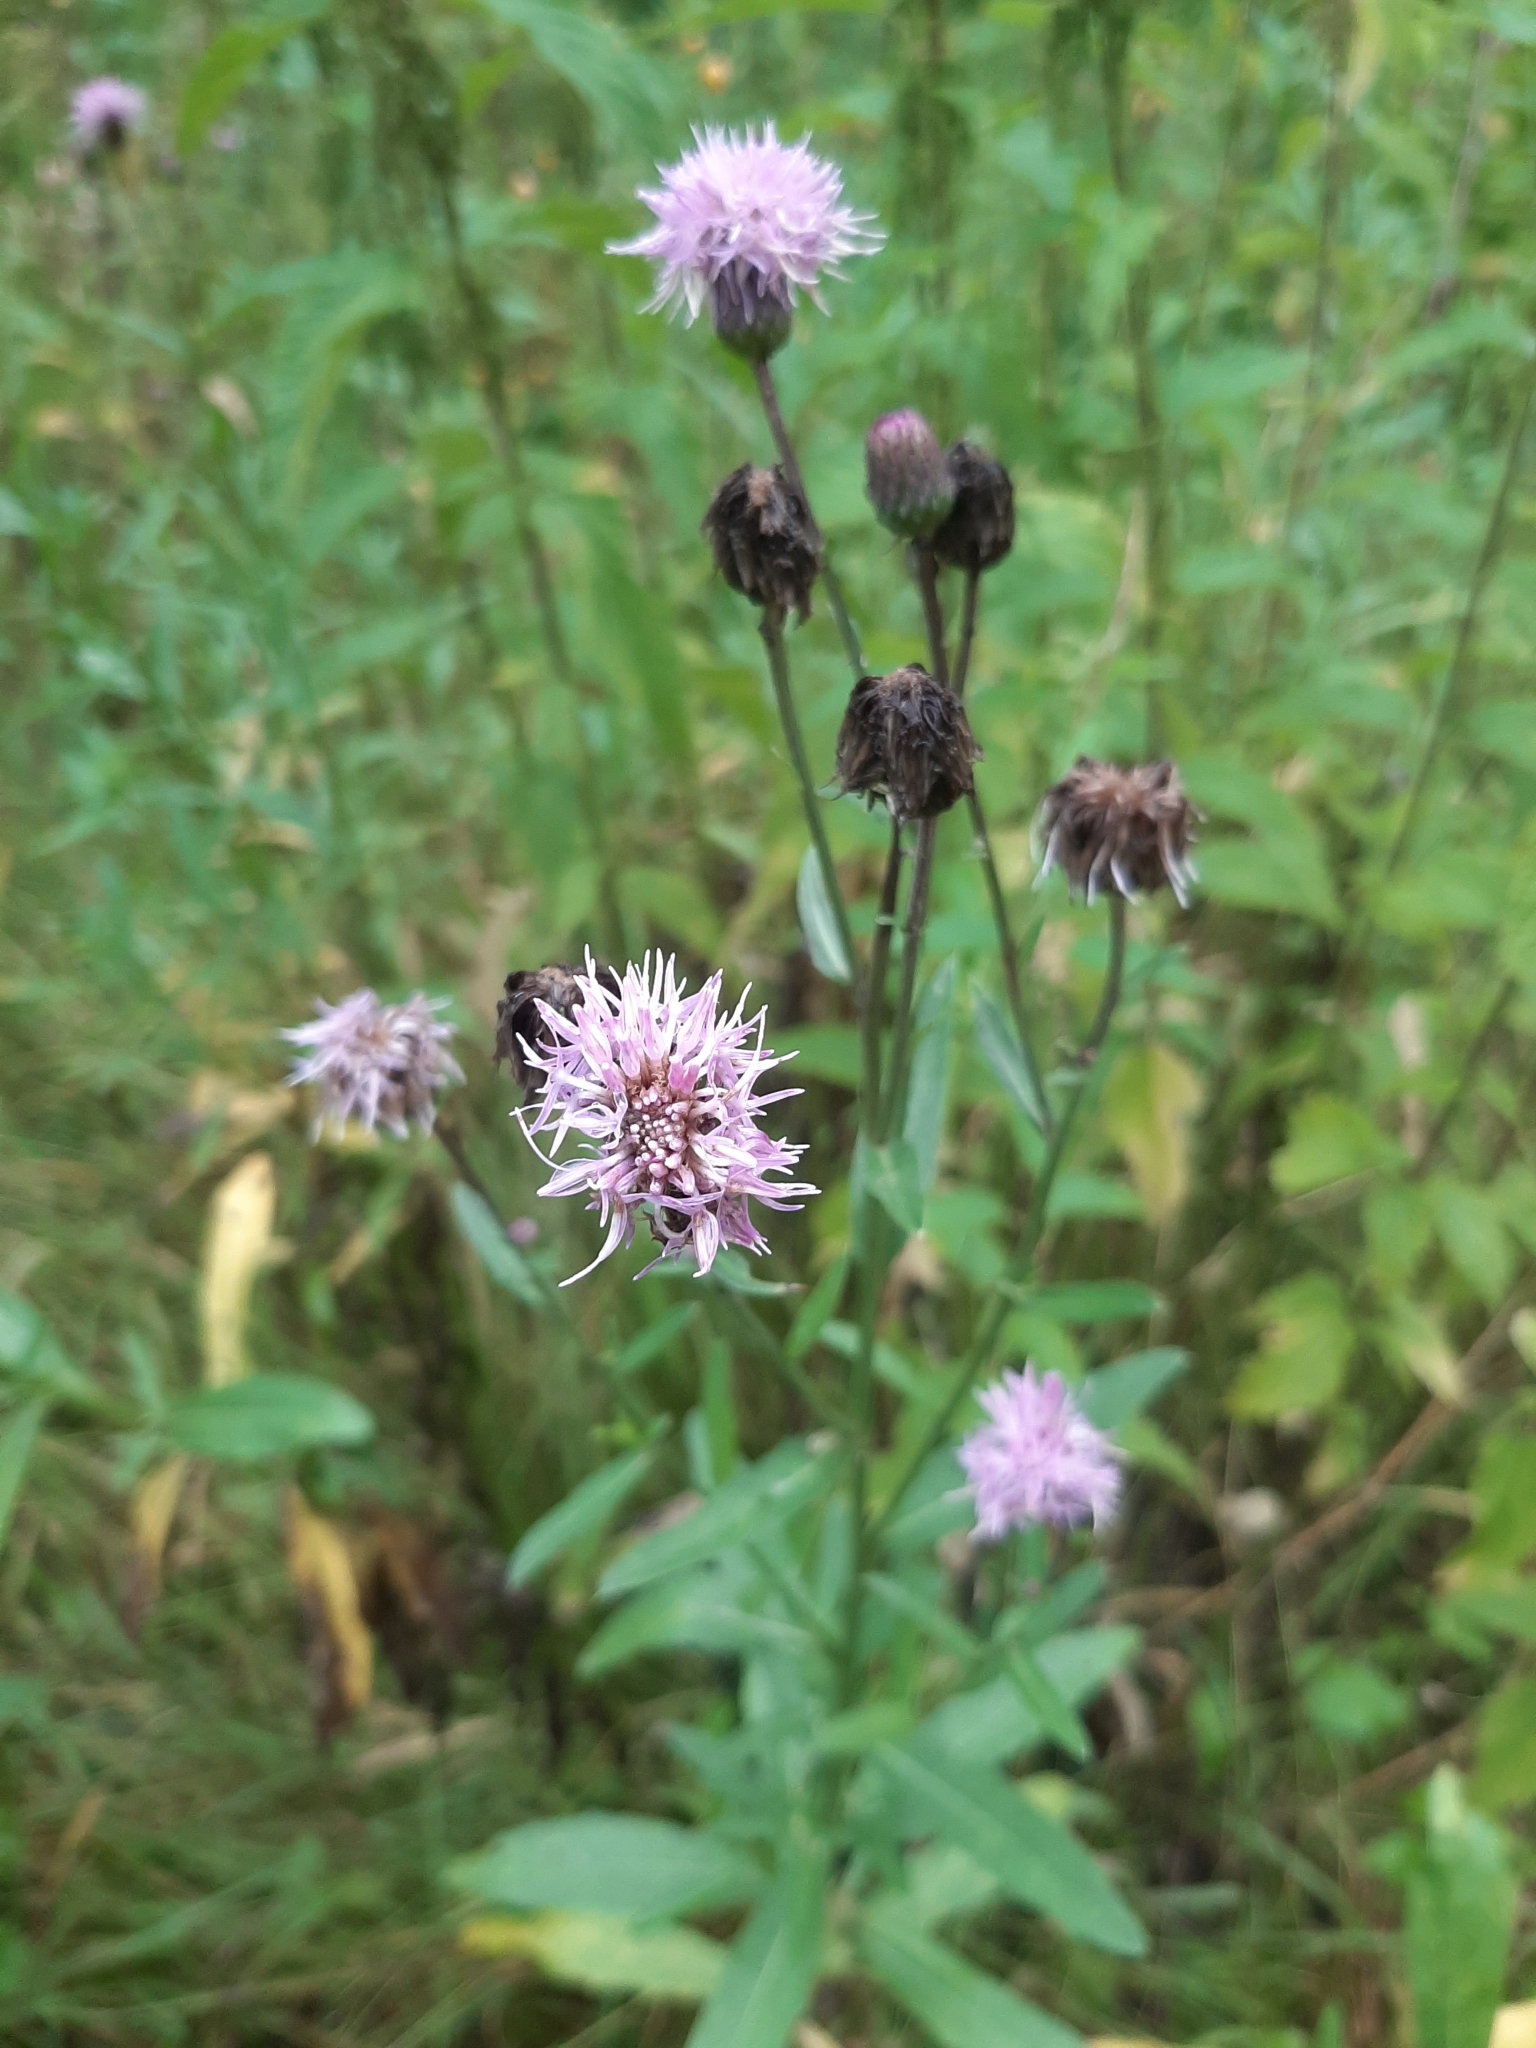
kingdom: Plantae
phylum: Tracheophyta
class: Magnoliopsida
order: Asterales
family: Asteraceae
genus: Cirsium
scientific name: Cirsium arvense
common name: Creeping thistle
